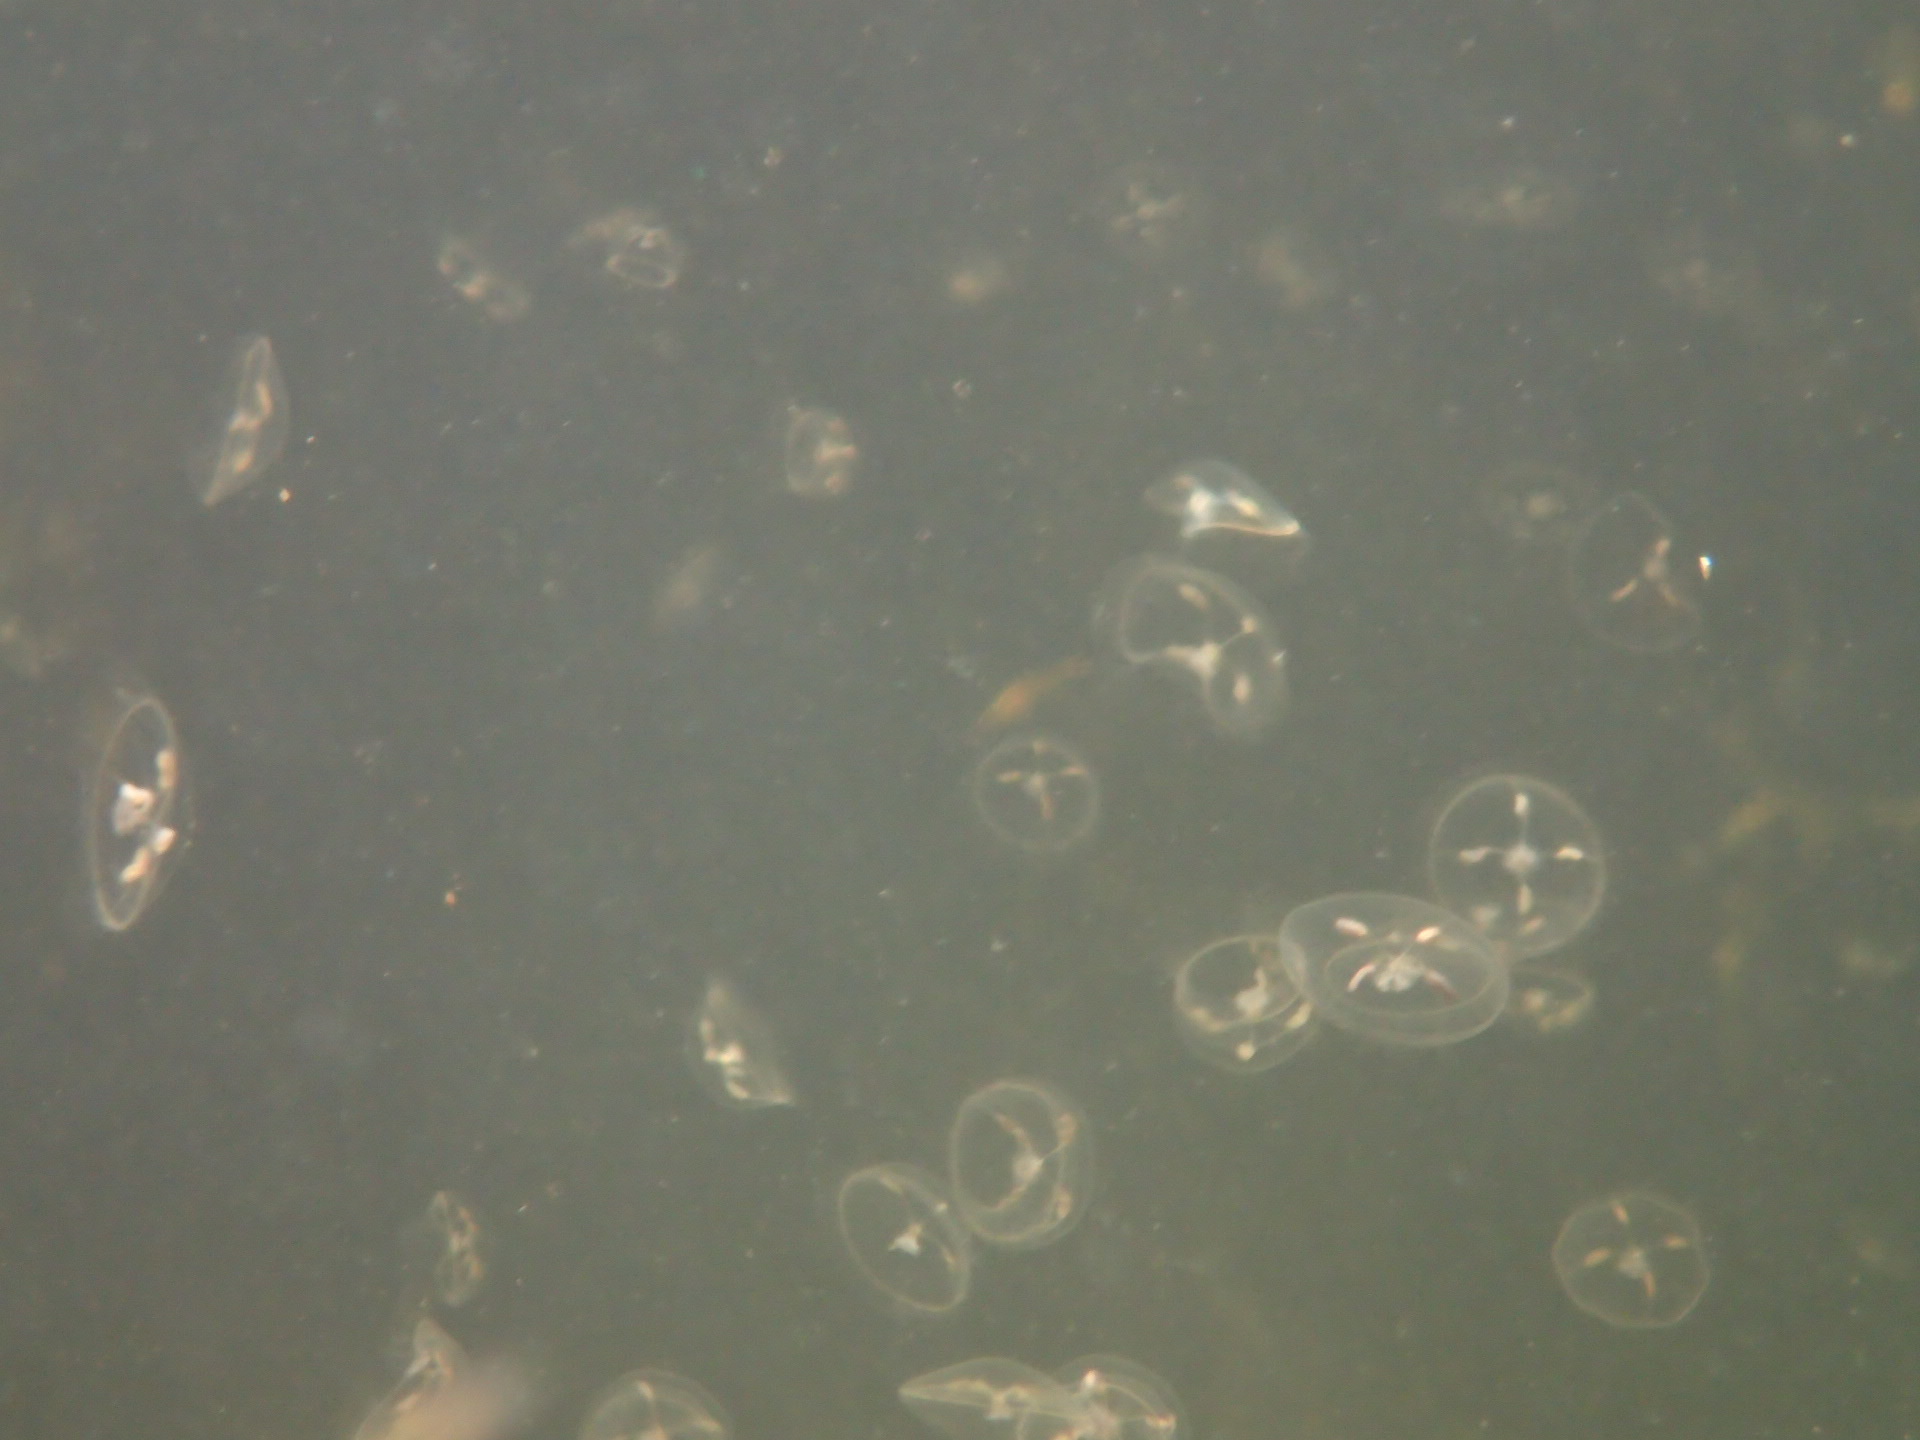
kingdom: Animalia
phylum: Cnidaria
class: Hydrozoa
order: Leptothecata
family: Tiaropsidae
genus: Tiaropsis
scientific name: Tiaropsis multicirrata
